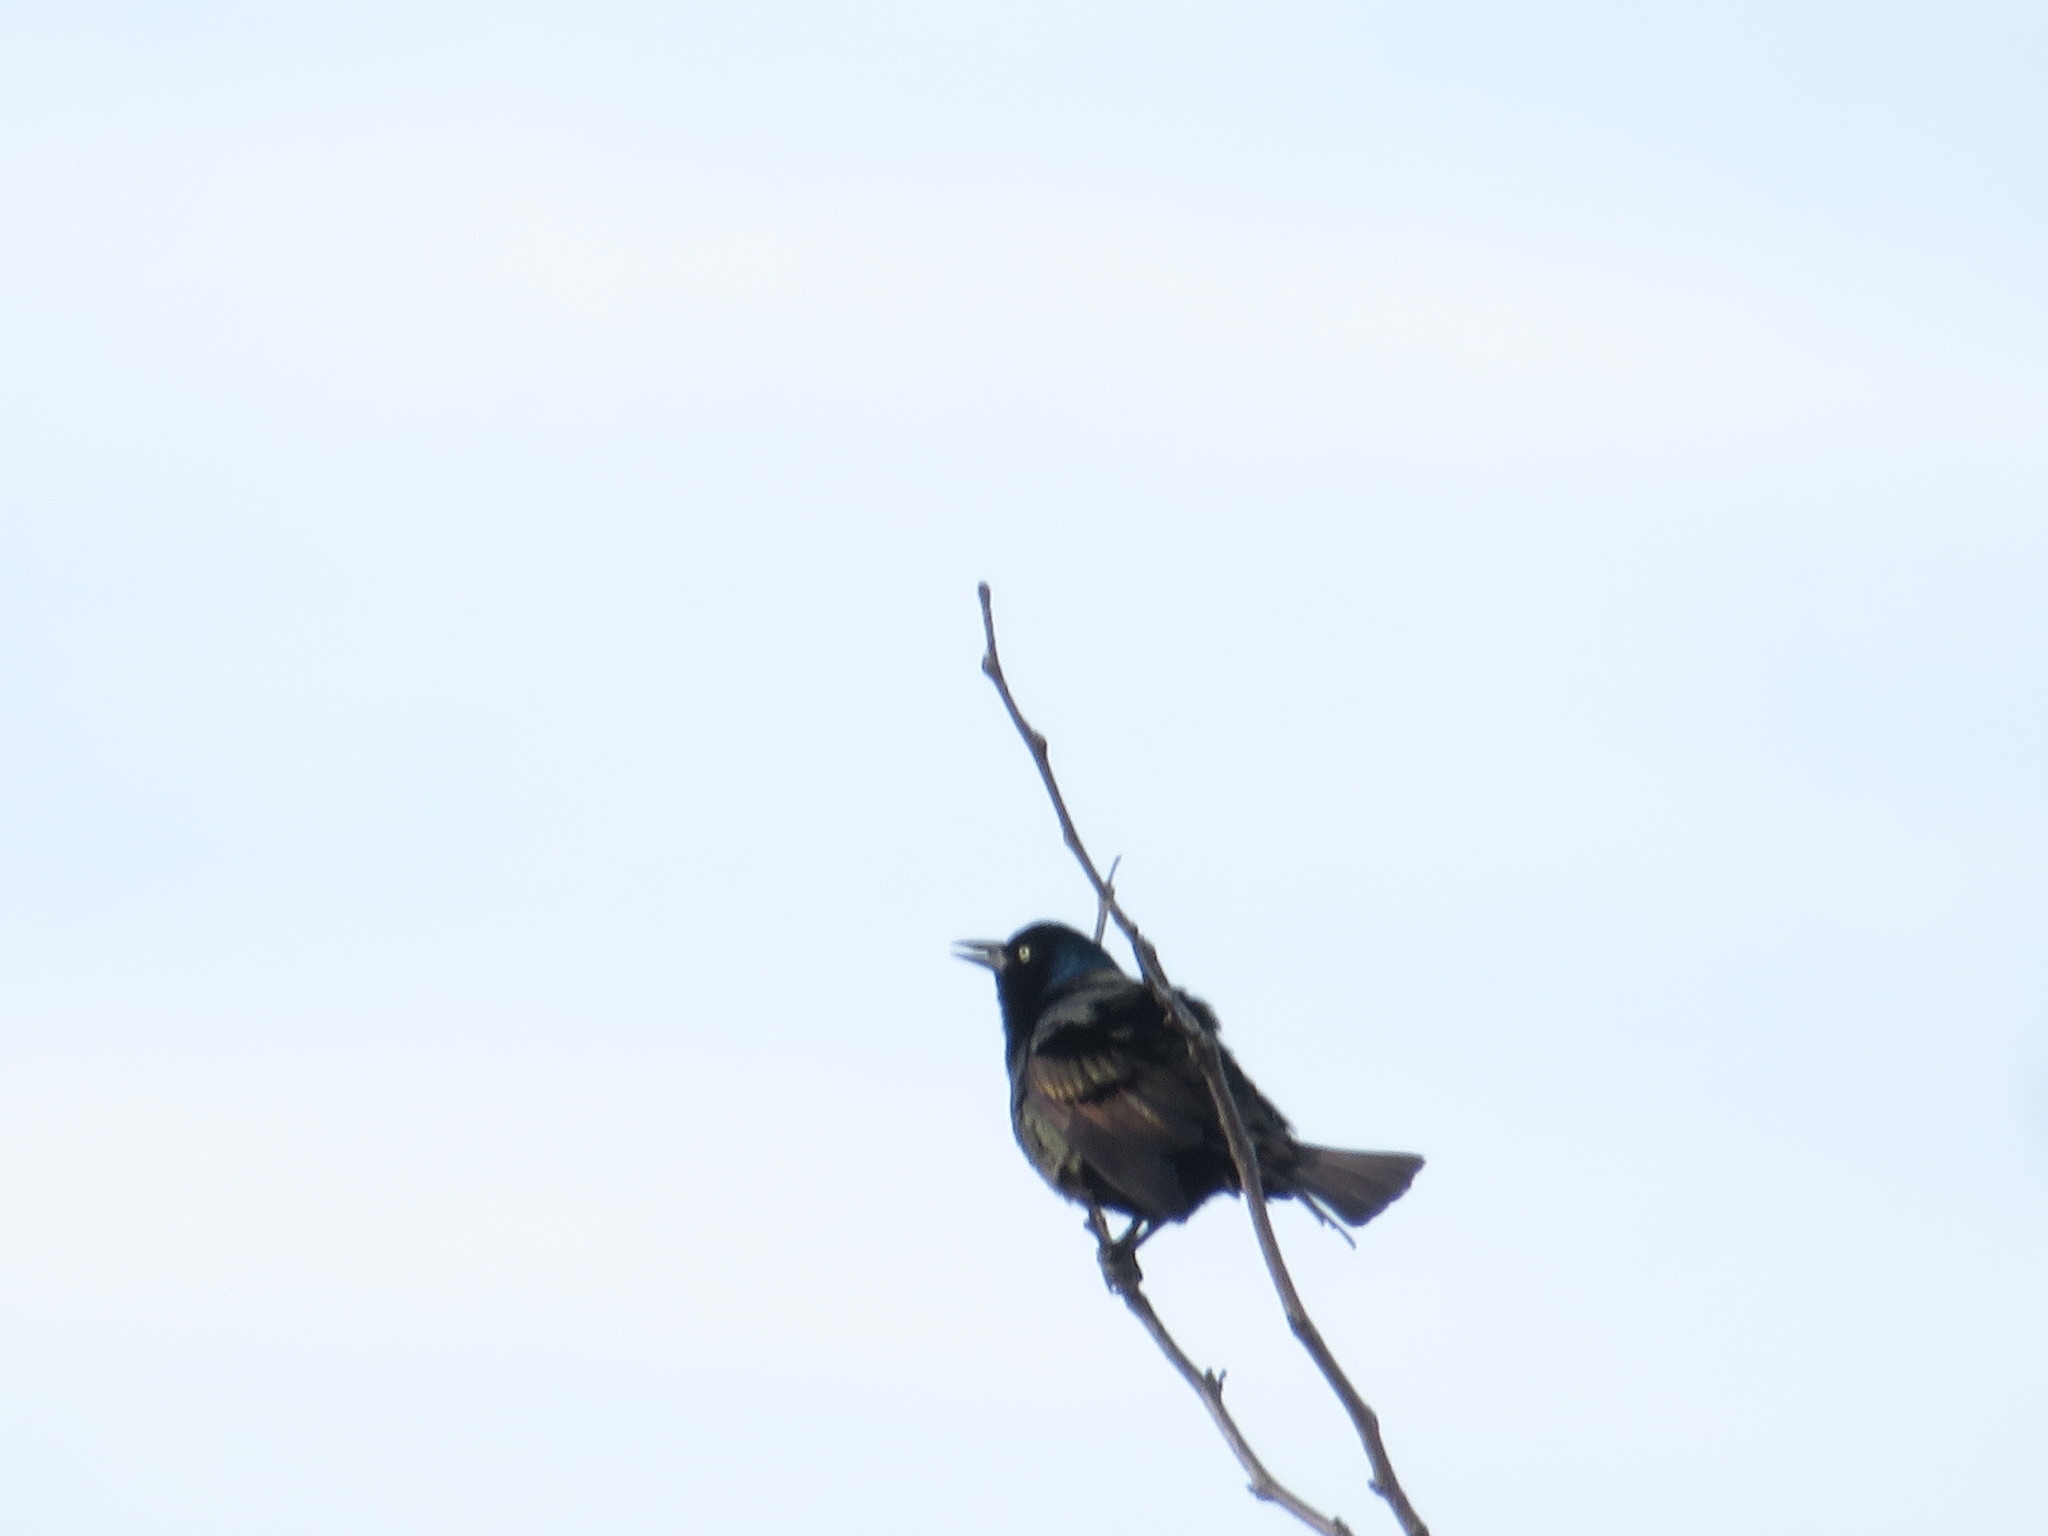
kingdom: Animalia
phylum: Chordata
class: Aves
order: Passeriformes
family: Icteridae
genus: Quiscalus
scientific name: Quiscalus quiscula
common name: Common grackle
